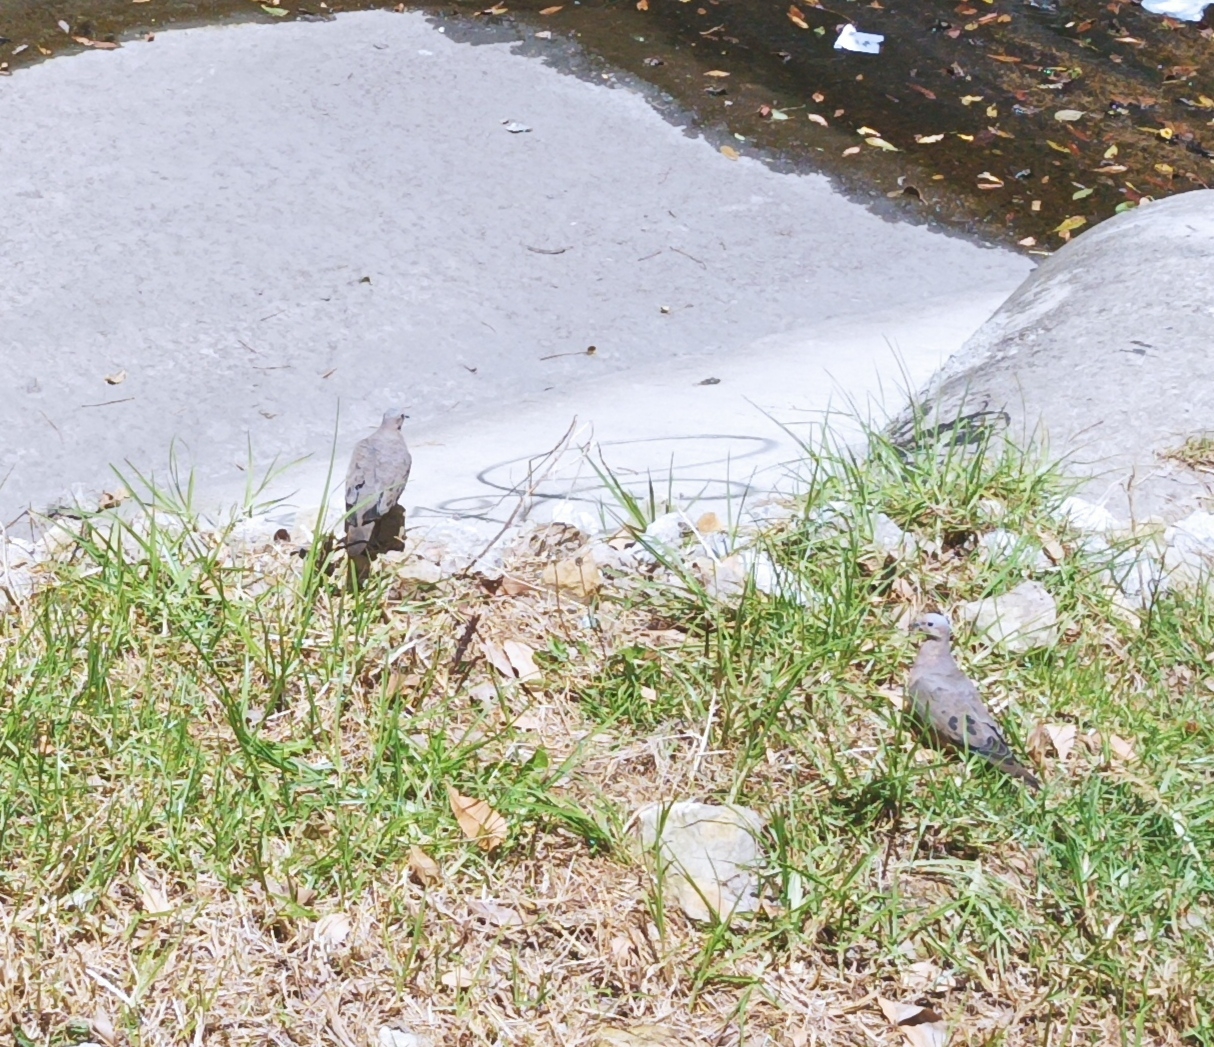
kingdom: Animalia
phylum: Chordata
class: Aves
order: Columbiformes
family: Columbidae
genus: Zenaida
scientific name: Zenaida auriculata
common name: Eared dove
